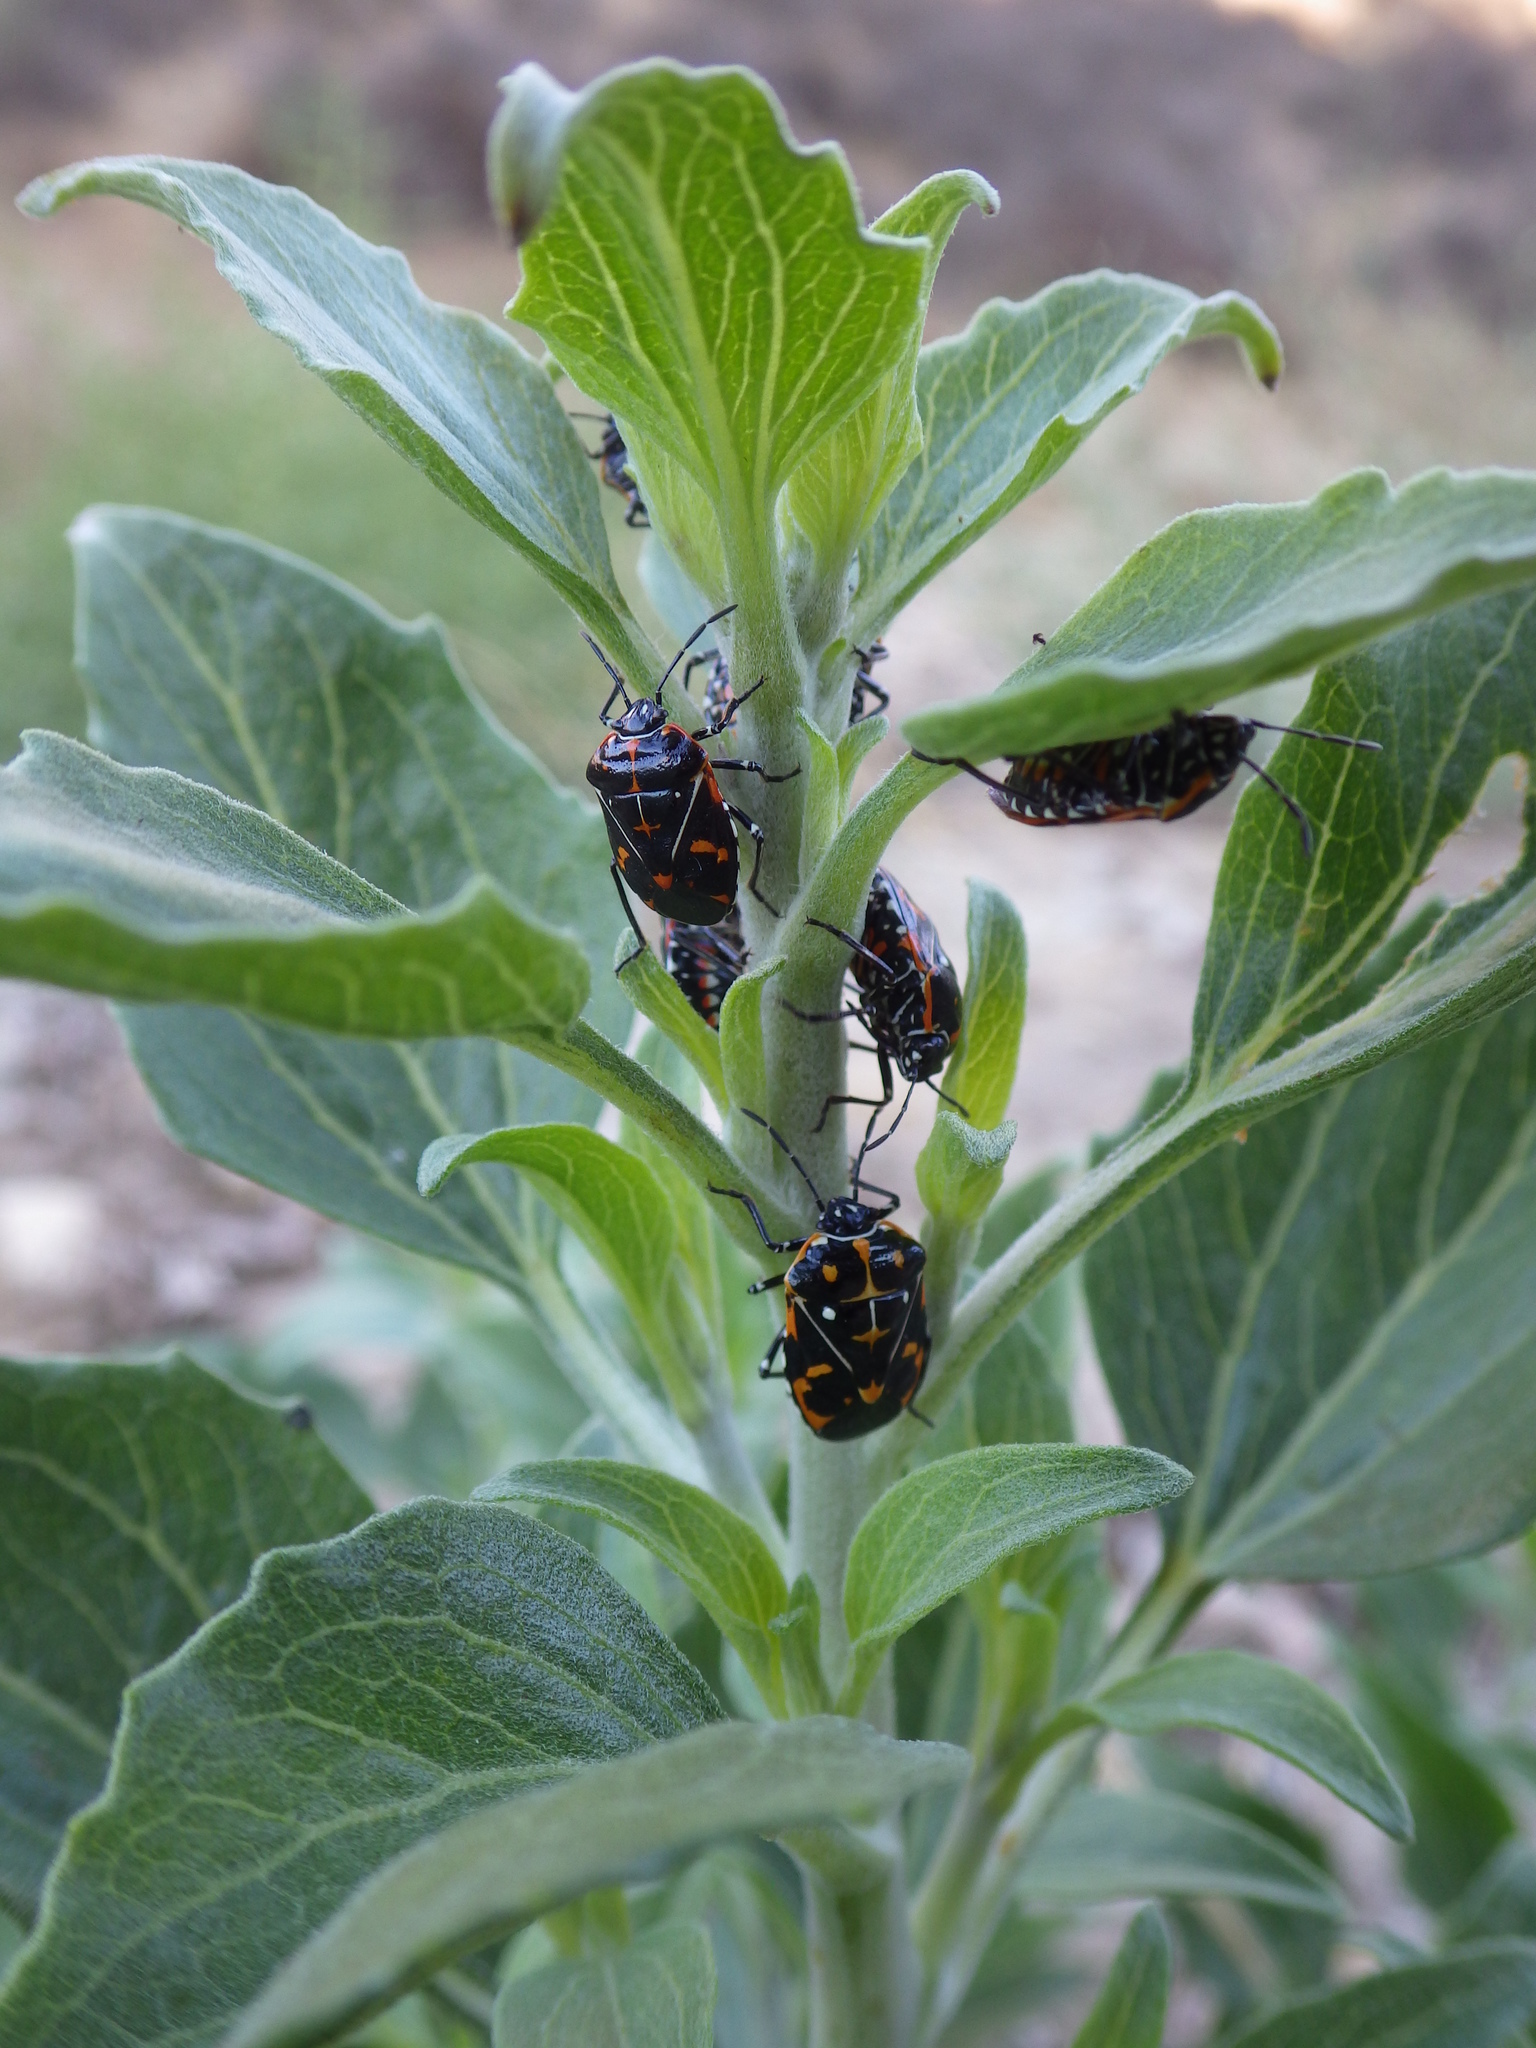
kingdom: Animalia
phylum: Arthropoda
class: Insecta
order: Hemiptera
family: Pentatomidae
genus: Murgantia
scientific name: Murgantia histrionica
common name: Harlequin bug
